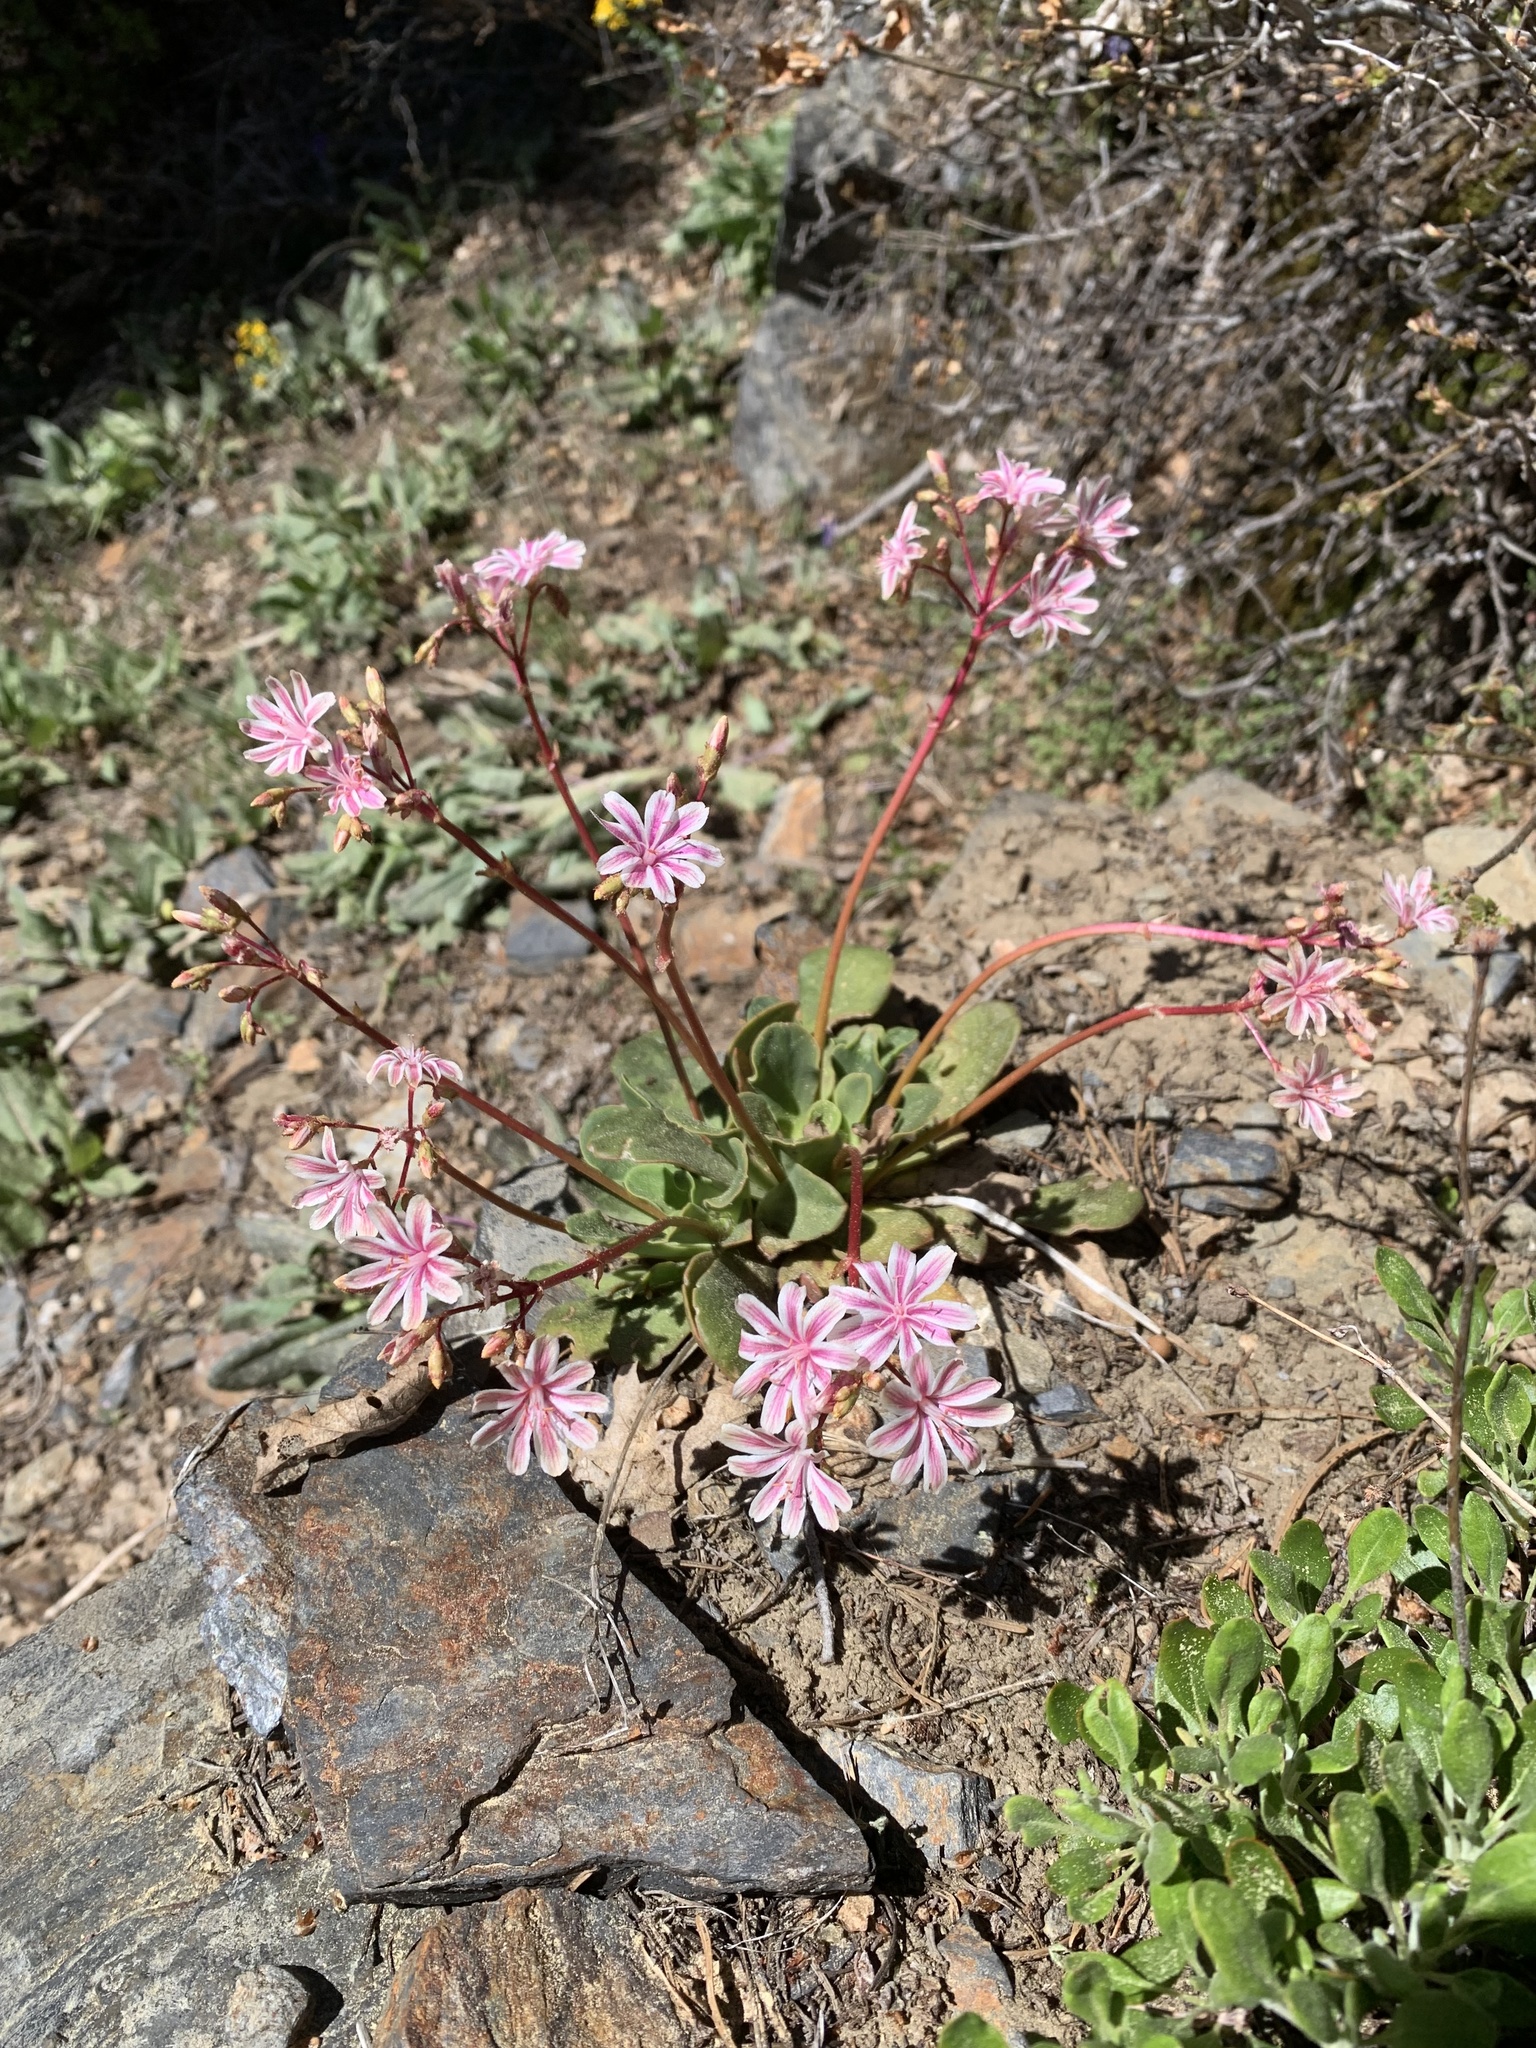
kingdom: Plantae
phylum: Tracheophyta
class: Magnoliopsida
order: Caryophyllales
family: Montiaceae
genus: Lewisia
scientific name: Lewisia cotyledon
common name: Siskiyou lewisia
